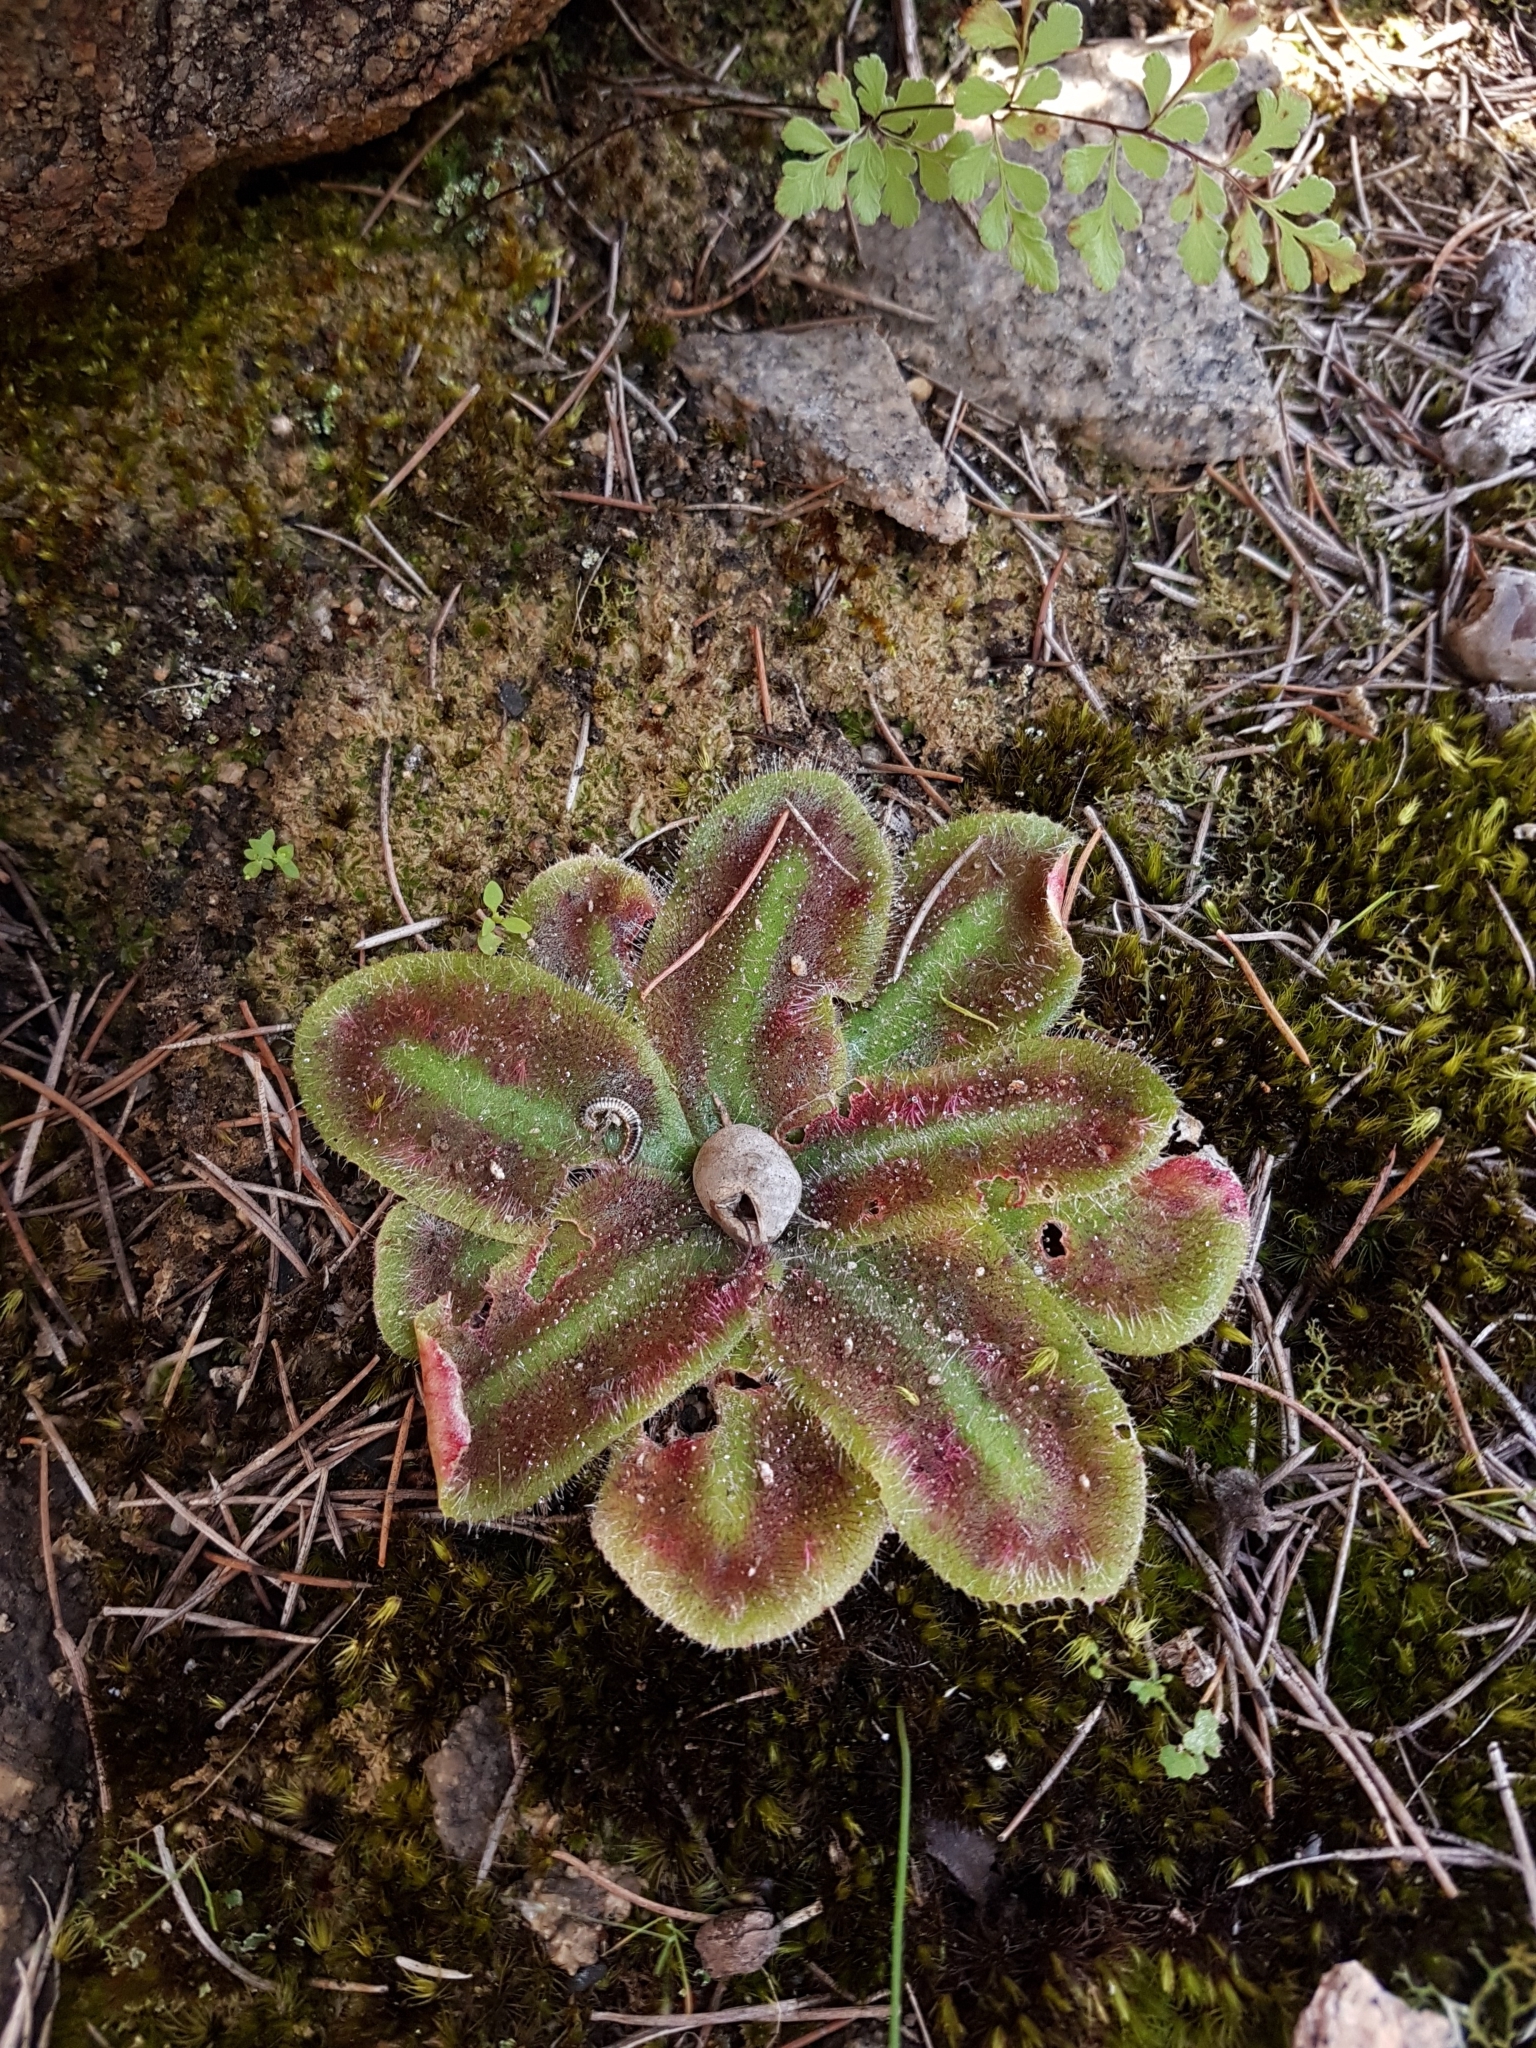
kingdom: Plantae
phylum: Tracheophyta
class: Magnoliopsida
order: Caryophyllales
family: Droseraceae
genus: Drosera
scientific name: Drosera erythrorhiza
